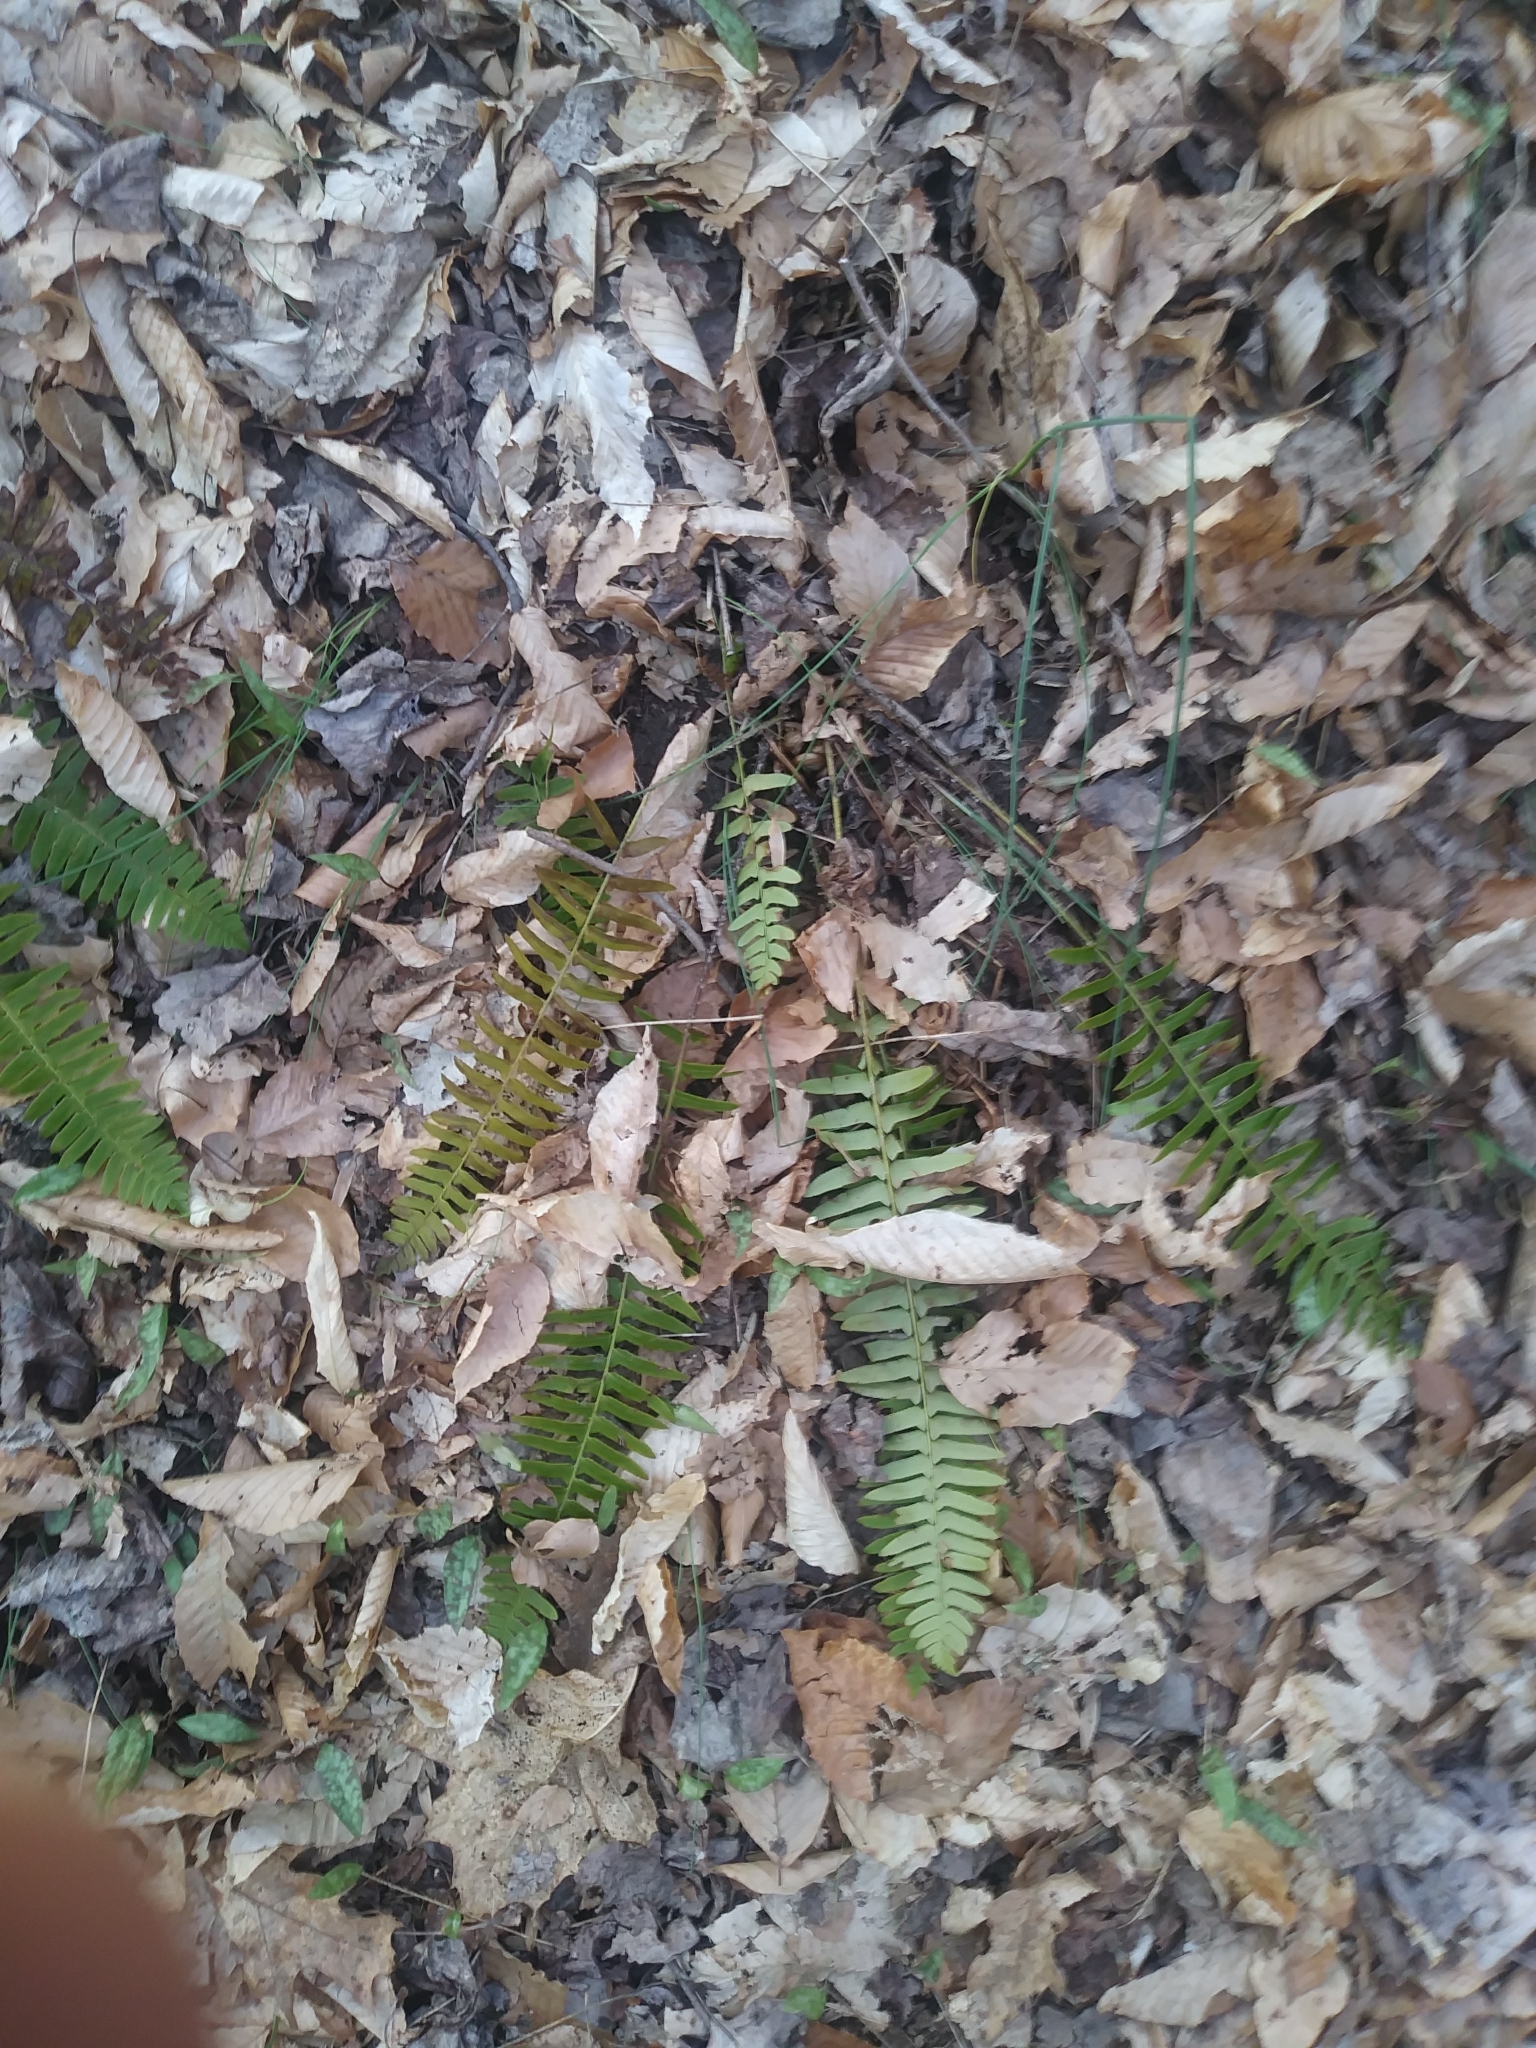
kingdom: Plantae
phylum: Tracheophyta
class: Polypodiopsida
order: Polypodiales
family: Dryopteridaceae
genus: Polystichum
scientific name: Polystichum acrostichoides
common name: Christmas fern
